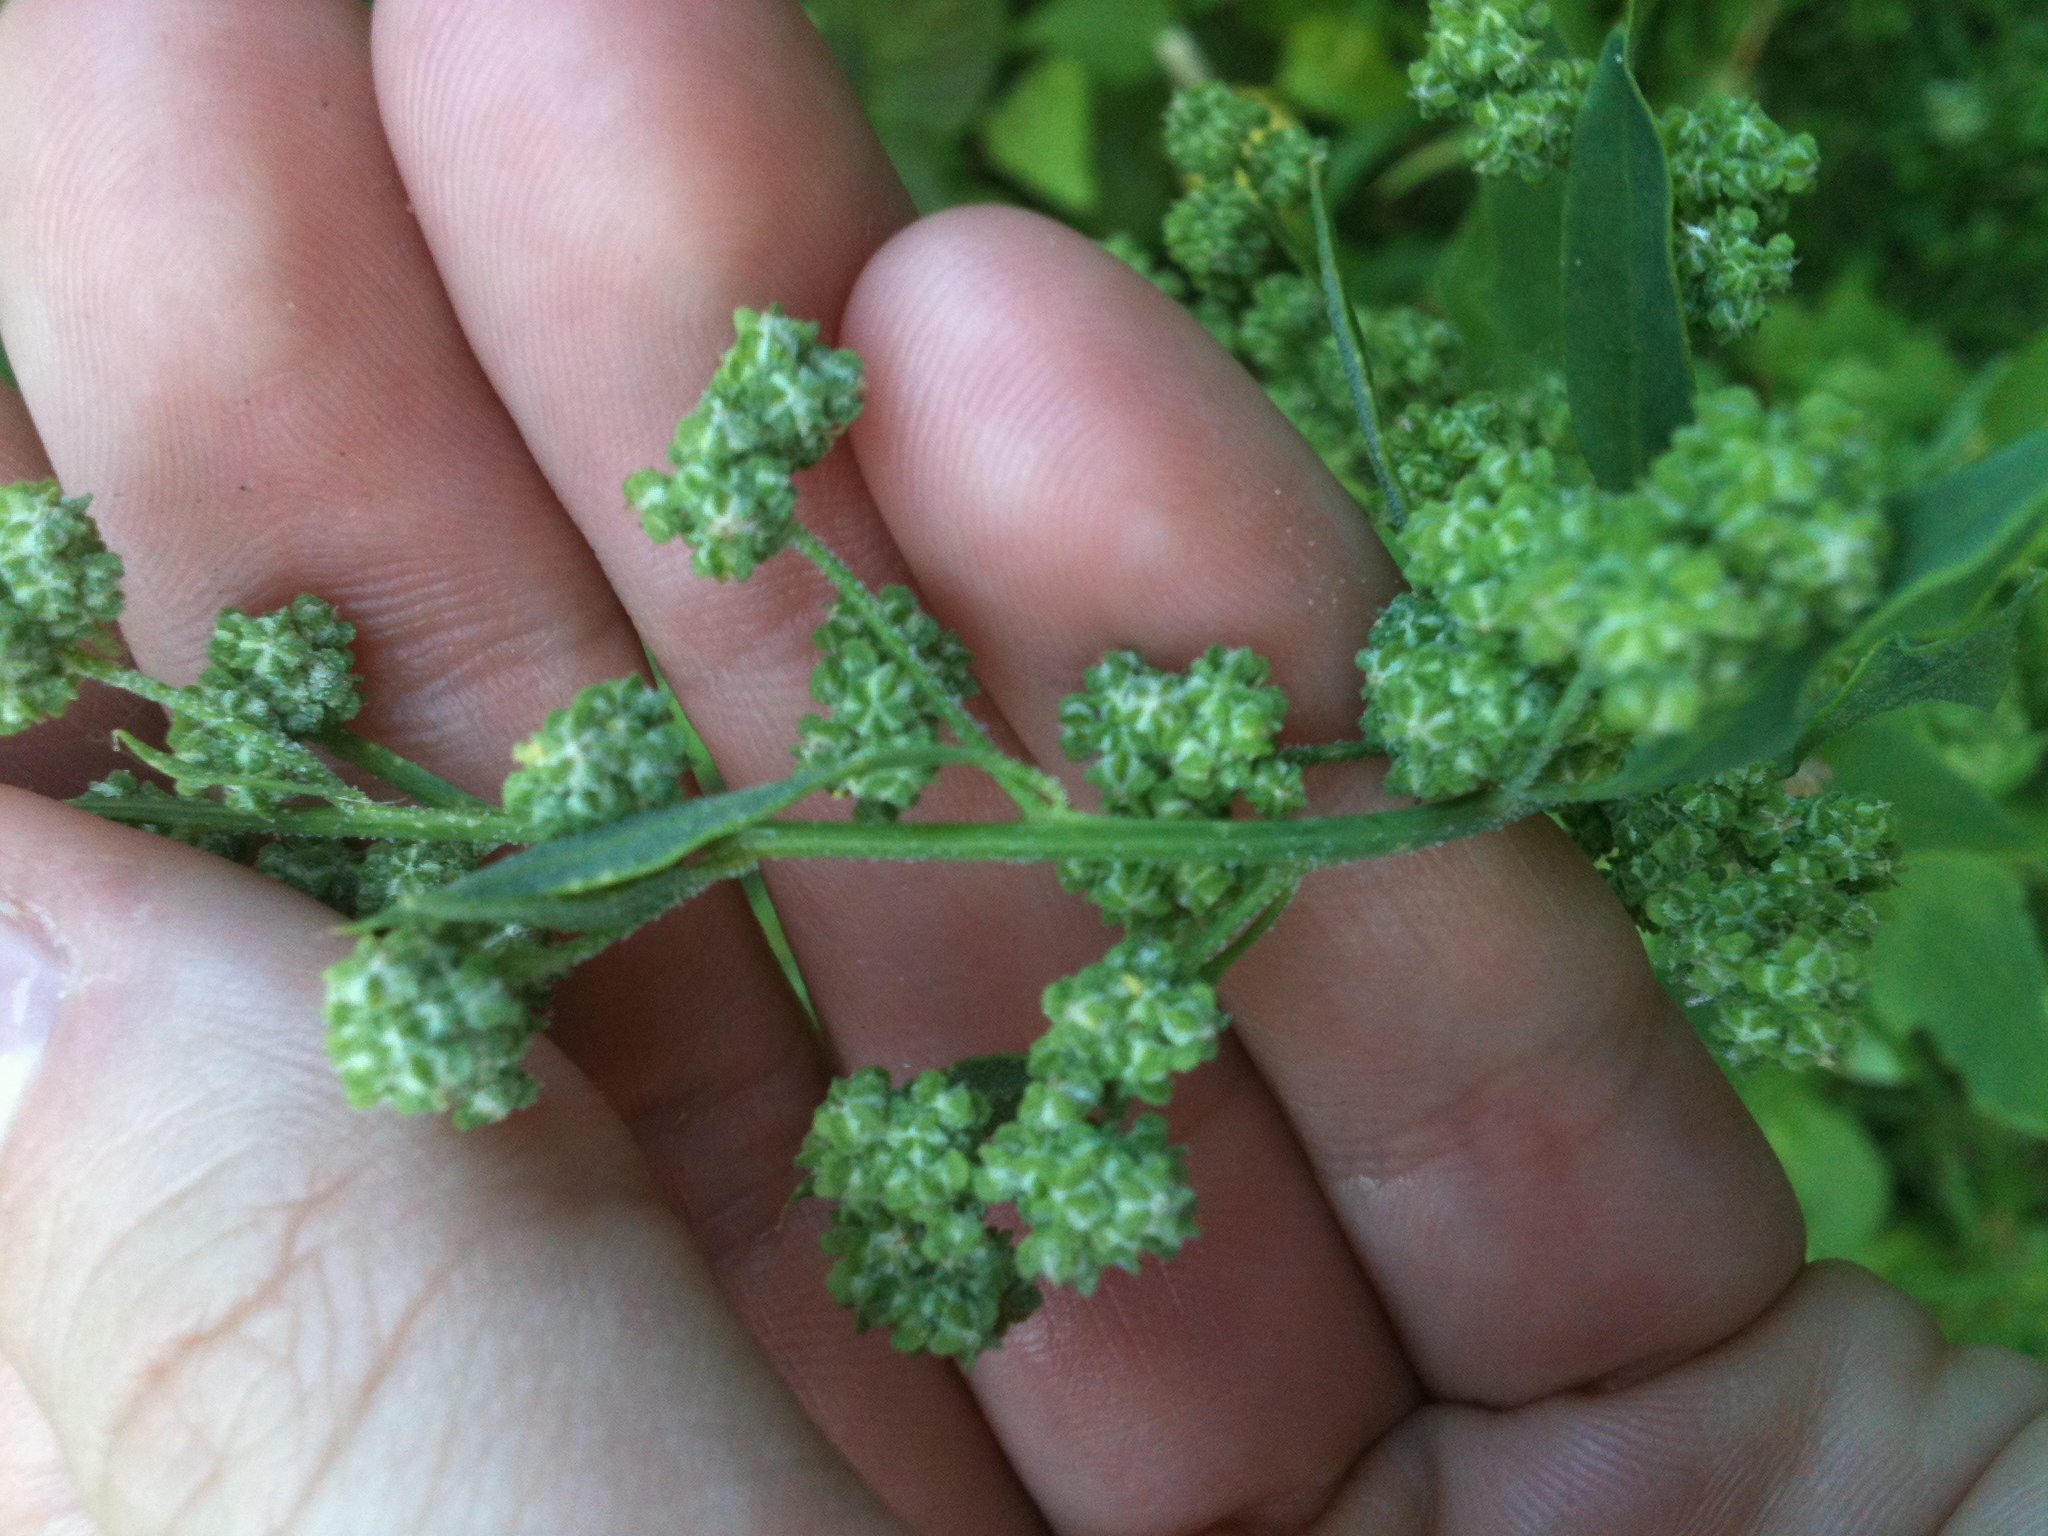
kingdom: Plantae
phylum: Tracheophyta
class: Magnoliopsida
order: Caryophyllales
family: Amaranthaceae
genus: Chenopodium
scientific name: Chenopodium album
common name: Fat-hen
